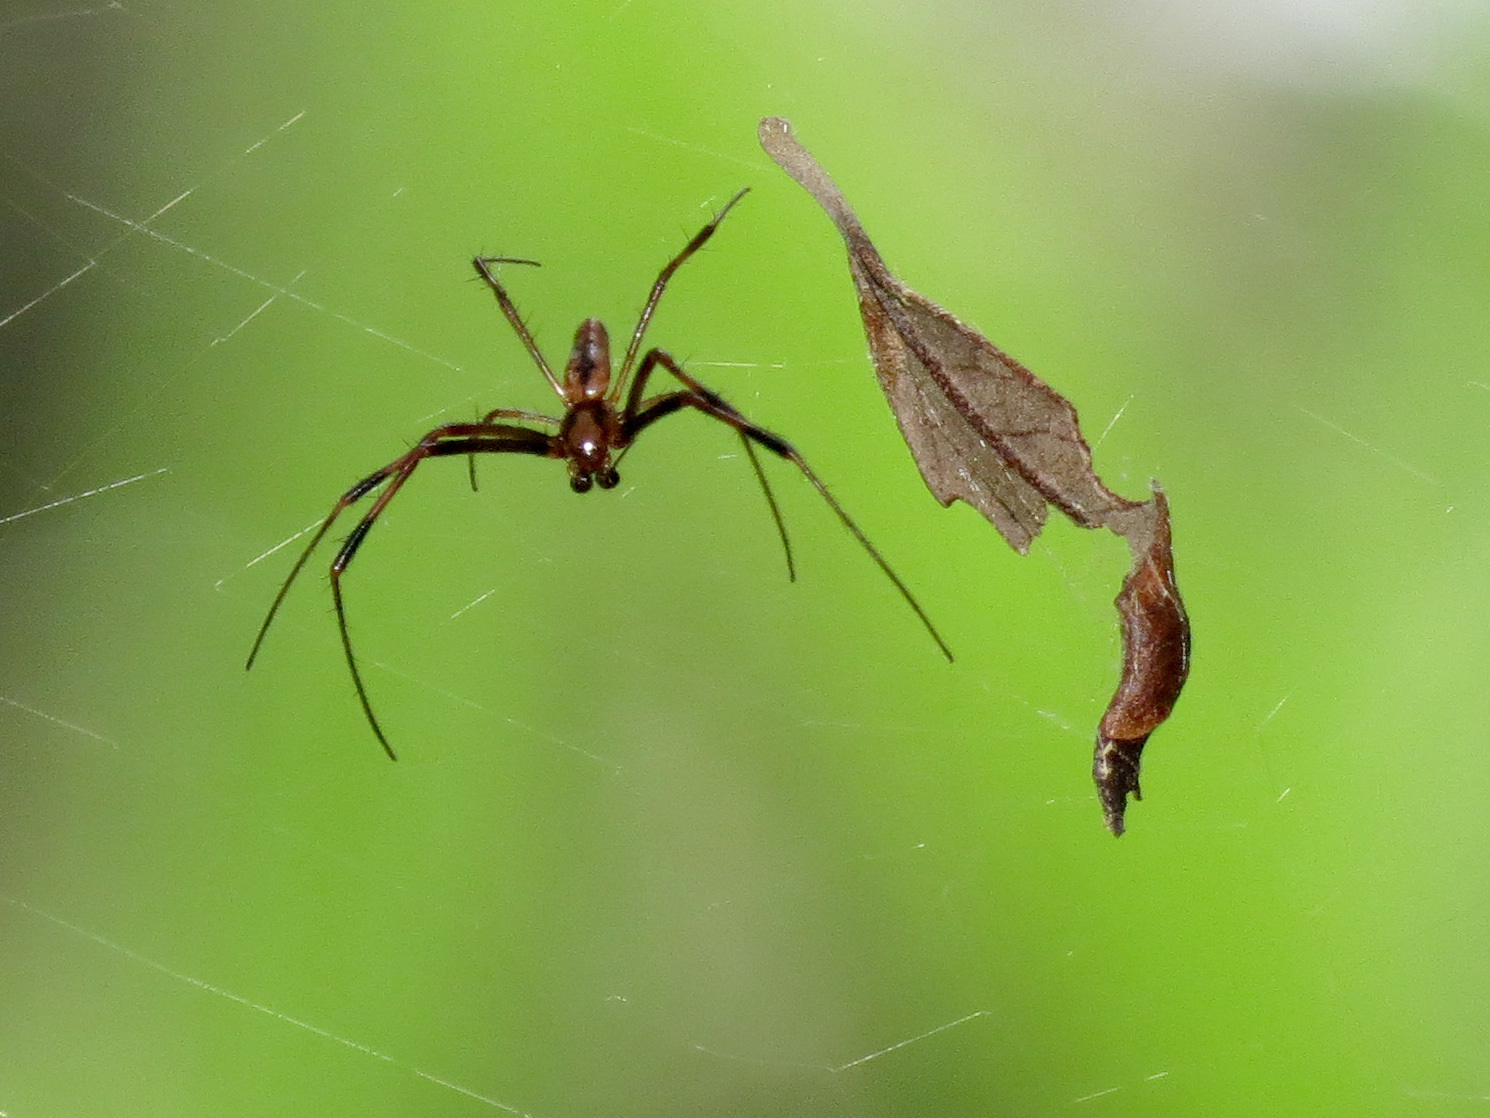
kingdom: Animalia
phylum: Arthropoda
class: Arachnida
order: Araneae
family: Araneidae
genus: Trichonephila
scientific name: Trichonephila clavipes
